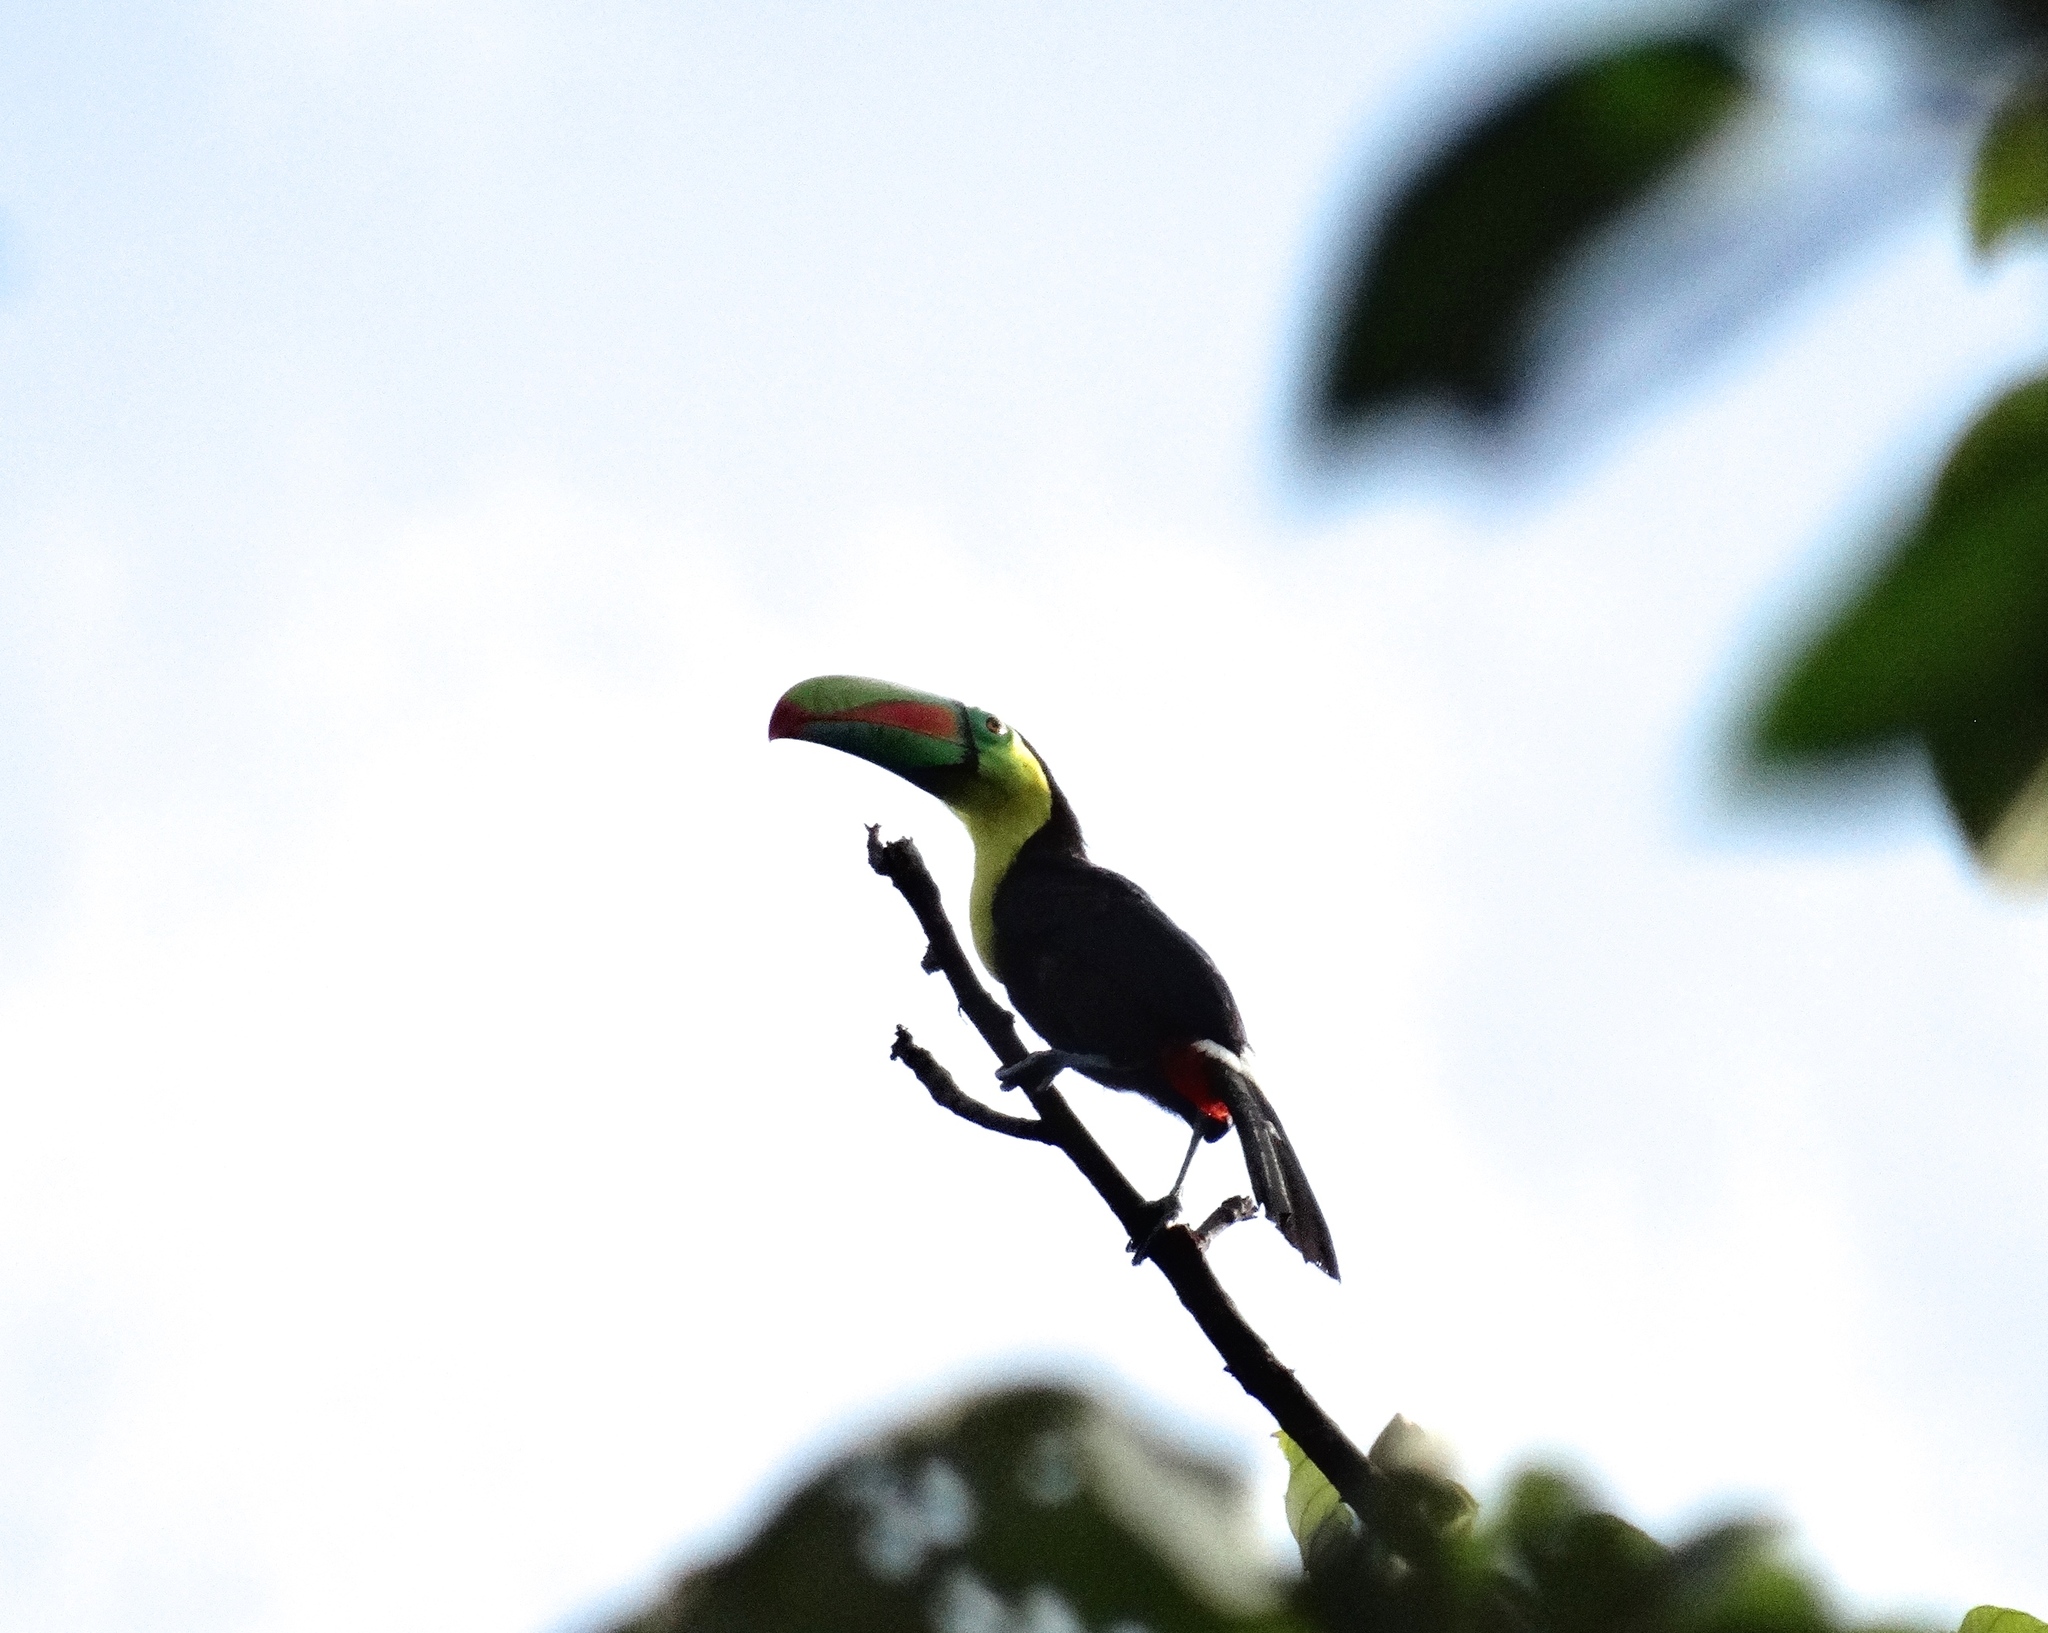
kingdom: Animalia
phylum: Chordata
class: Aves
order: Piciformes
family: Ramphastidae
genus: Ramphastos
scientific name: Ramphastos sulfuratus
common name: Keel-billed toucan
